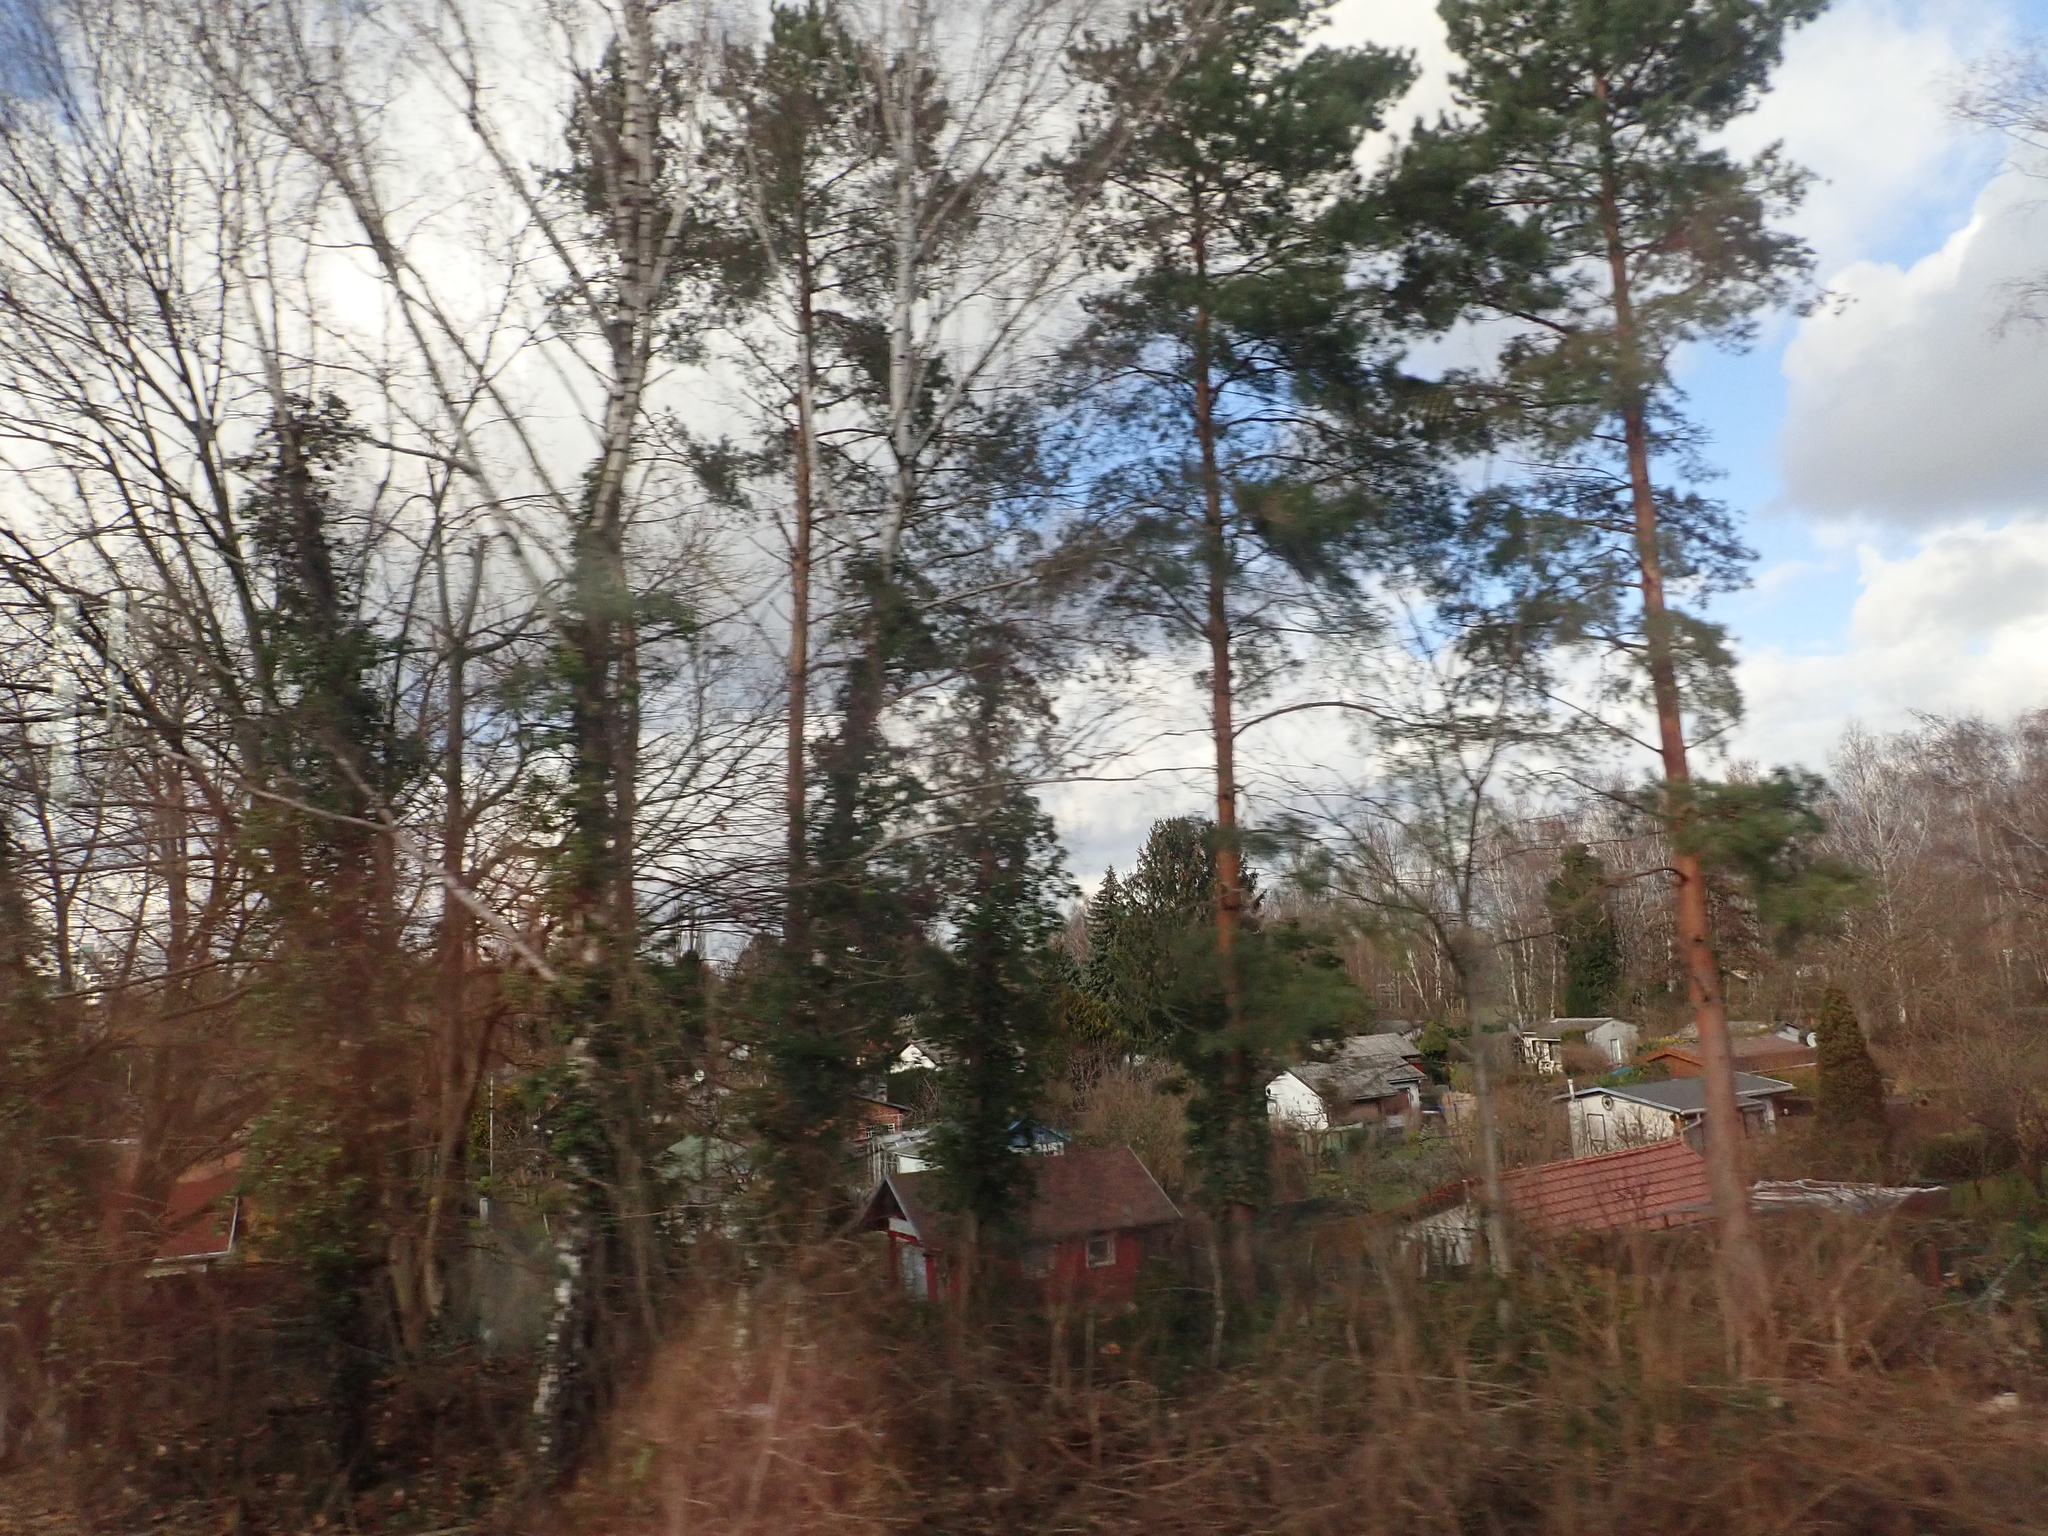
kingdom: Plantae
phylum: Tracheophyta
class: Pinopsida
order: Pinales
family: Pinaceae
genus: Pinus
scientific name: Pinus sylvestris
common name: Scots pine
